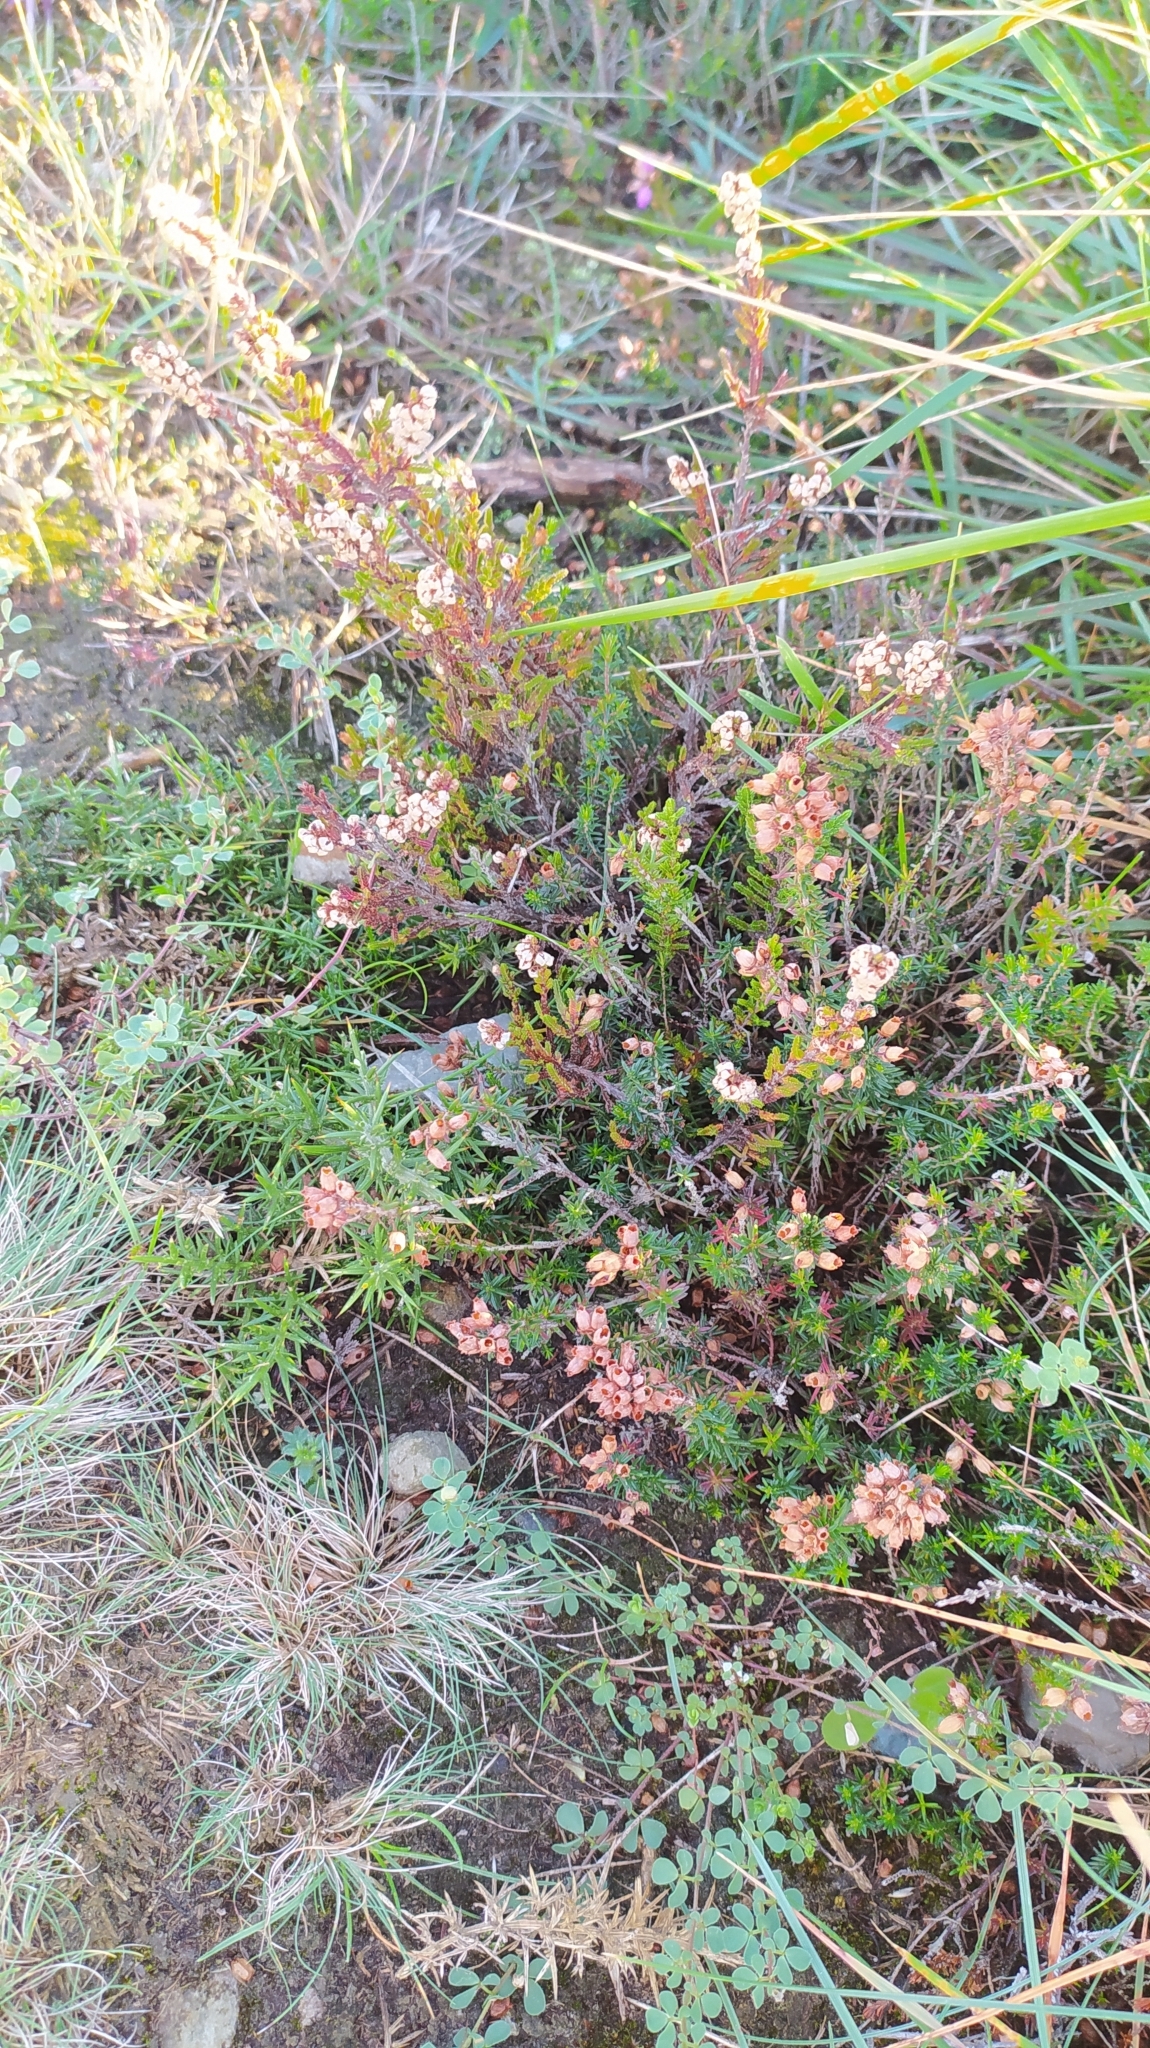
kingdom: Plantae
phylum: Tracheophyta
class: Magnoliopsida
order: Ericales
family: Ericaceae
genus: Erica
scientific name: Erica cinerea
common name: Bell heather
